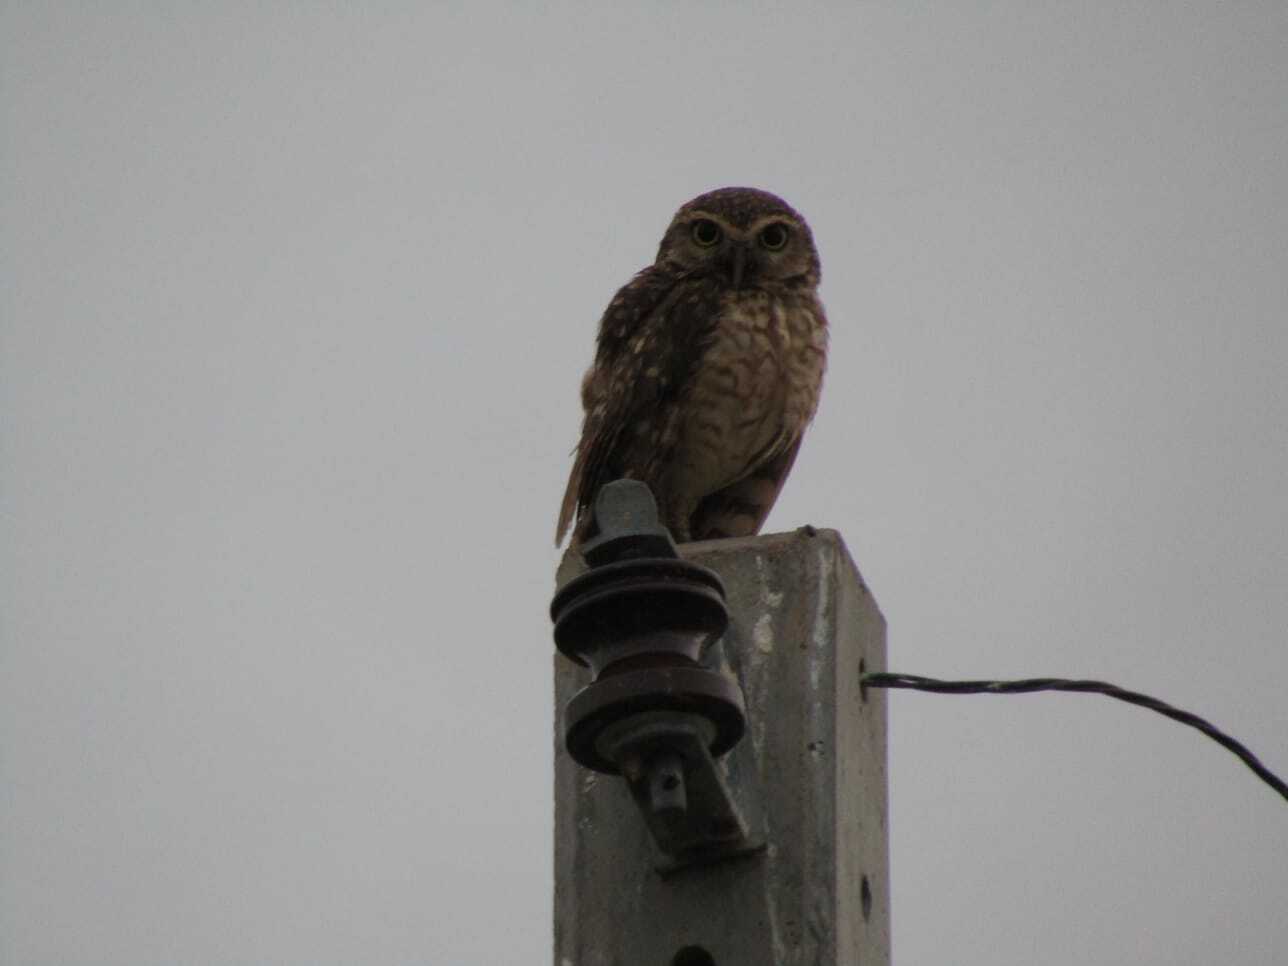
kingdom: Animalia
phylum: Chordata
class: Aves
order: Strigiformes
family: Strigidae
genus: Athene
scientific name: Athene cunicularia
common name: Burrowing owl
